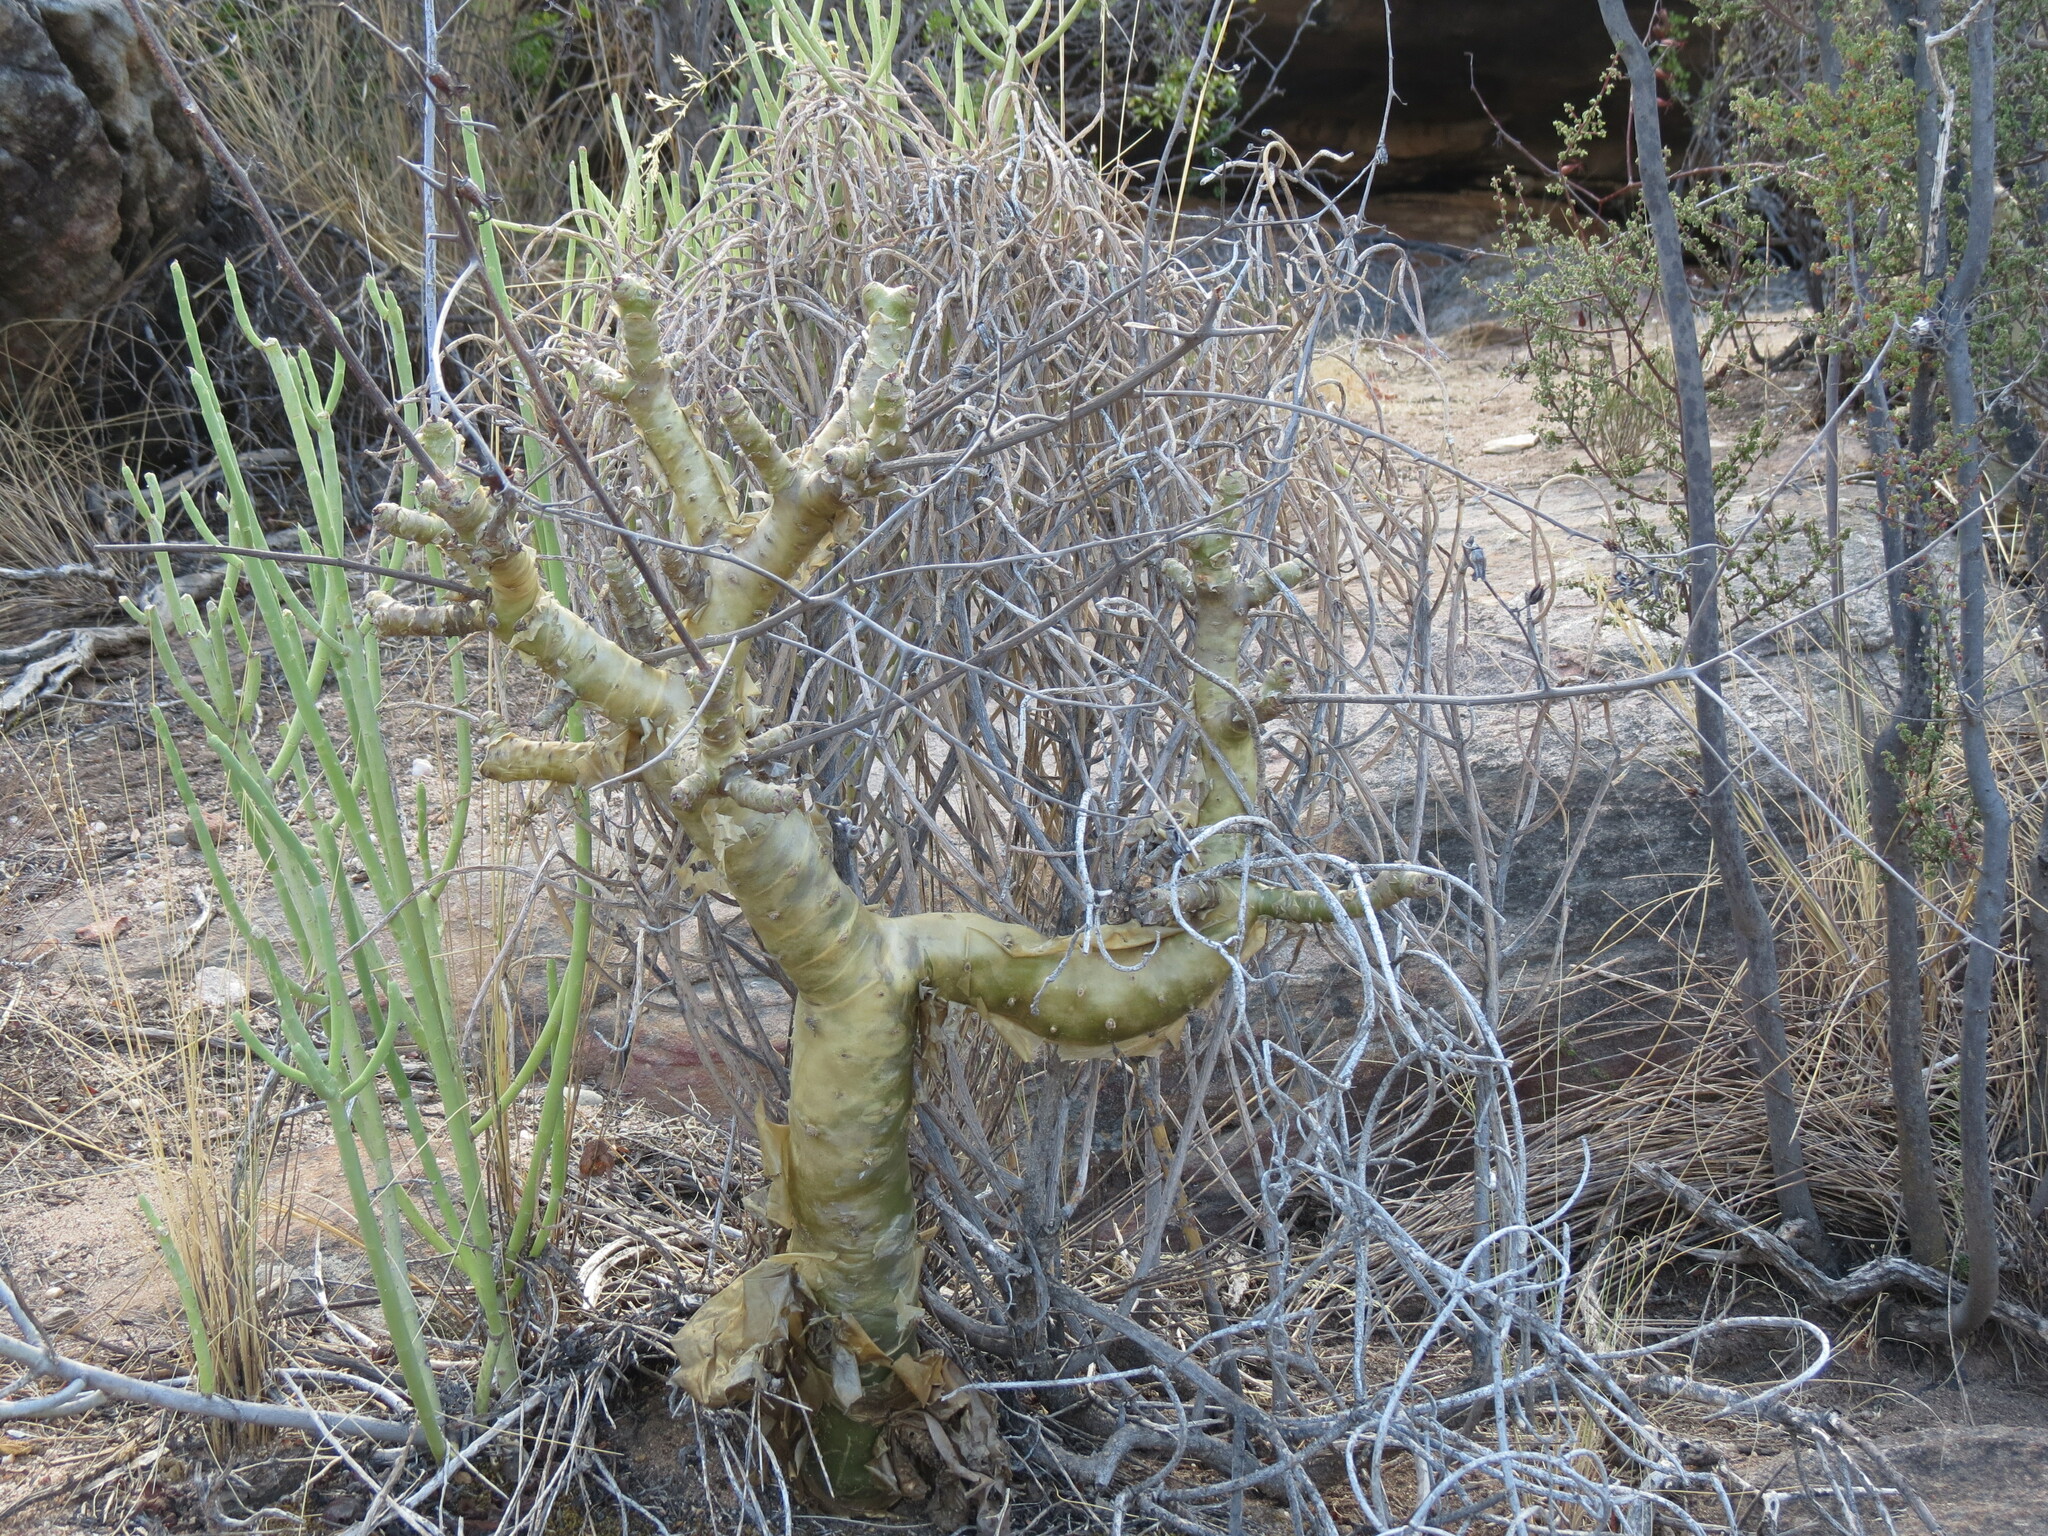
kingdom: Plantae
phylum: Tracheophyta
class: Magnoliopsida
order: Saxifragales
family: Crassulaceae
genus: Tylecodon
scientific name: Tylecodon paniculatus
